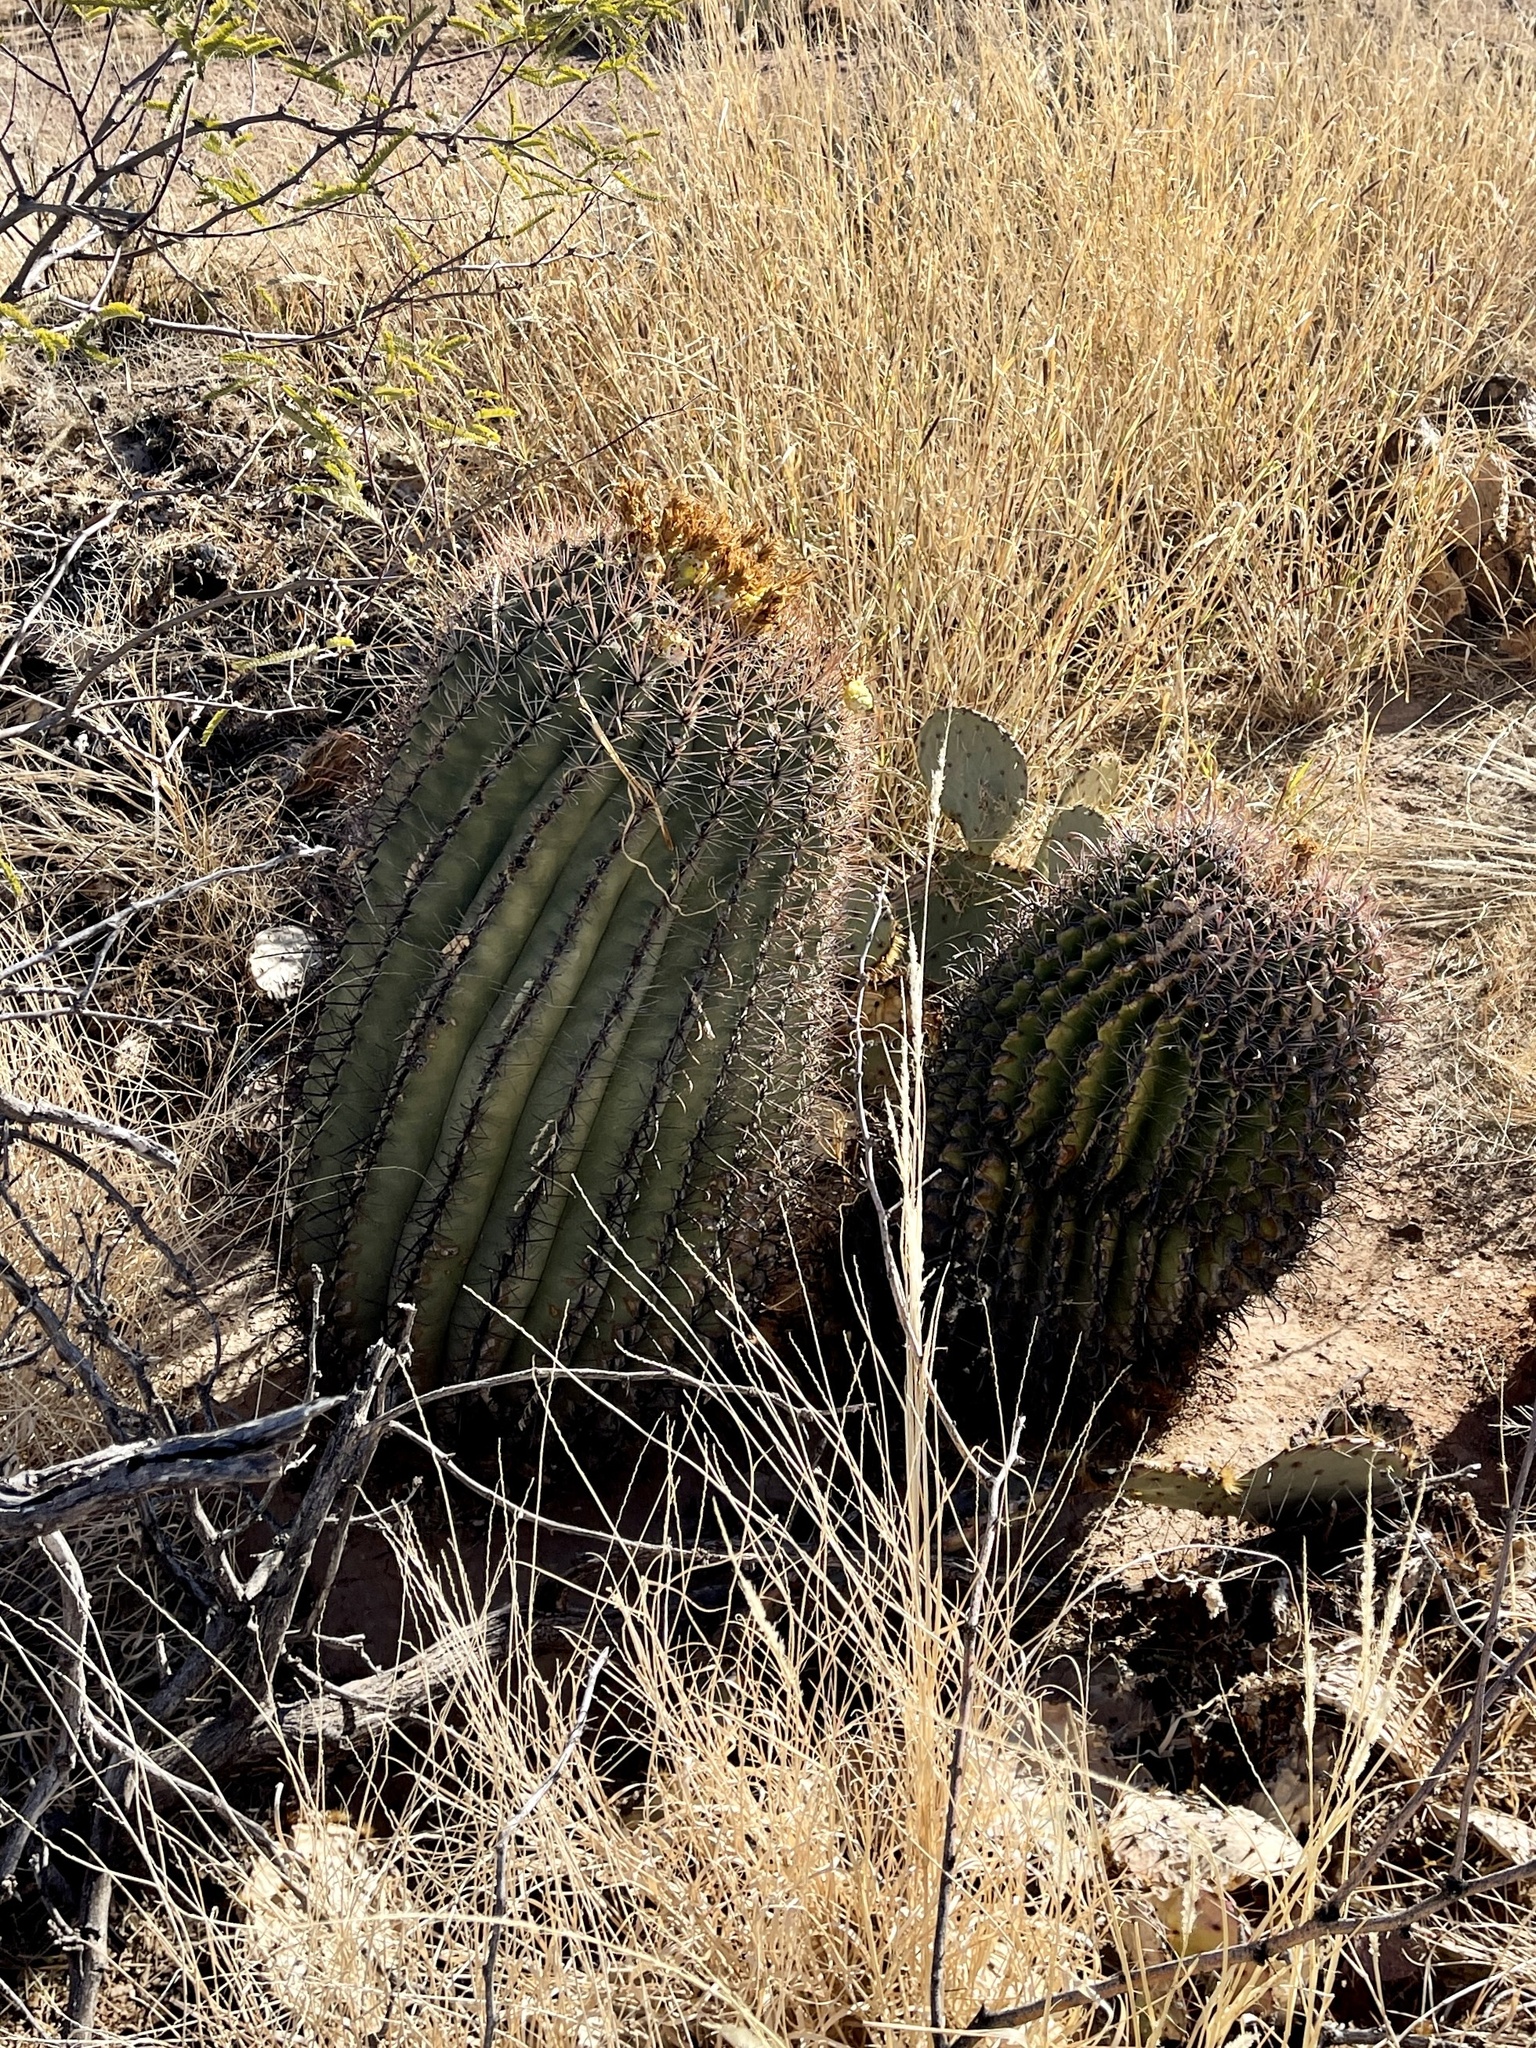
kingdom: Plantae
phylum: Tracheophyta
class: Magnoliopsida
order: Caryophyllales
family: Cactaceae
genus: Ferocactus
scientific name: Ferocactus wislizeni
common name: Candy barrel cactus
